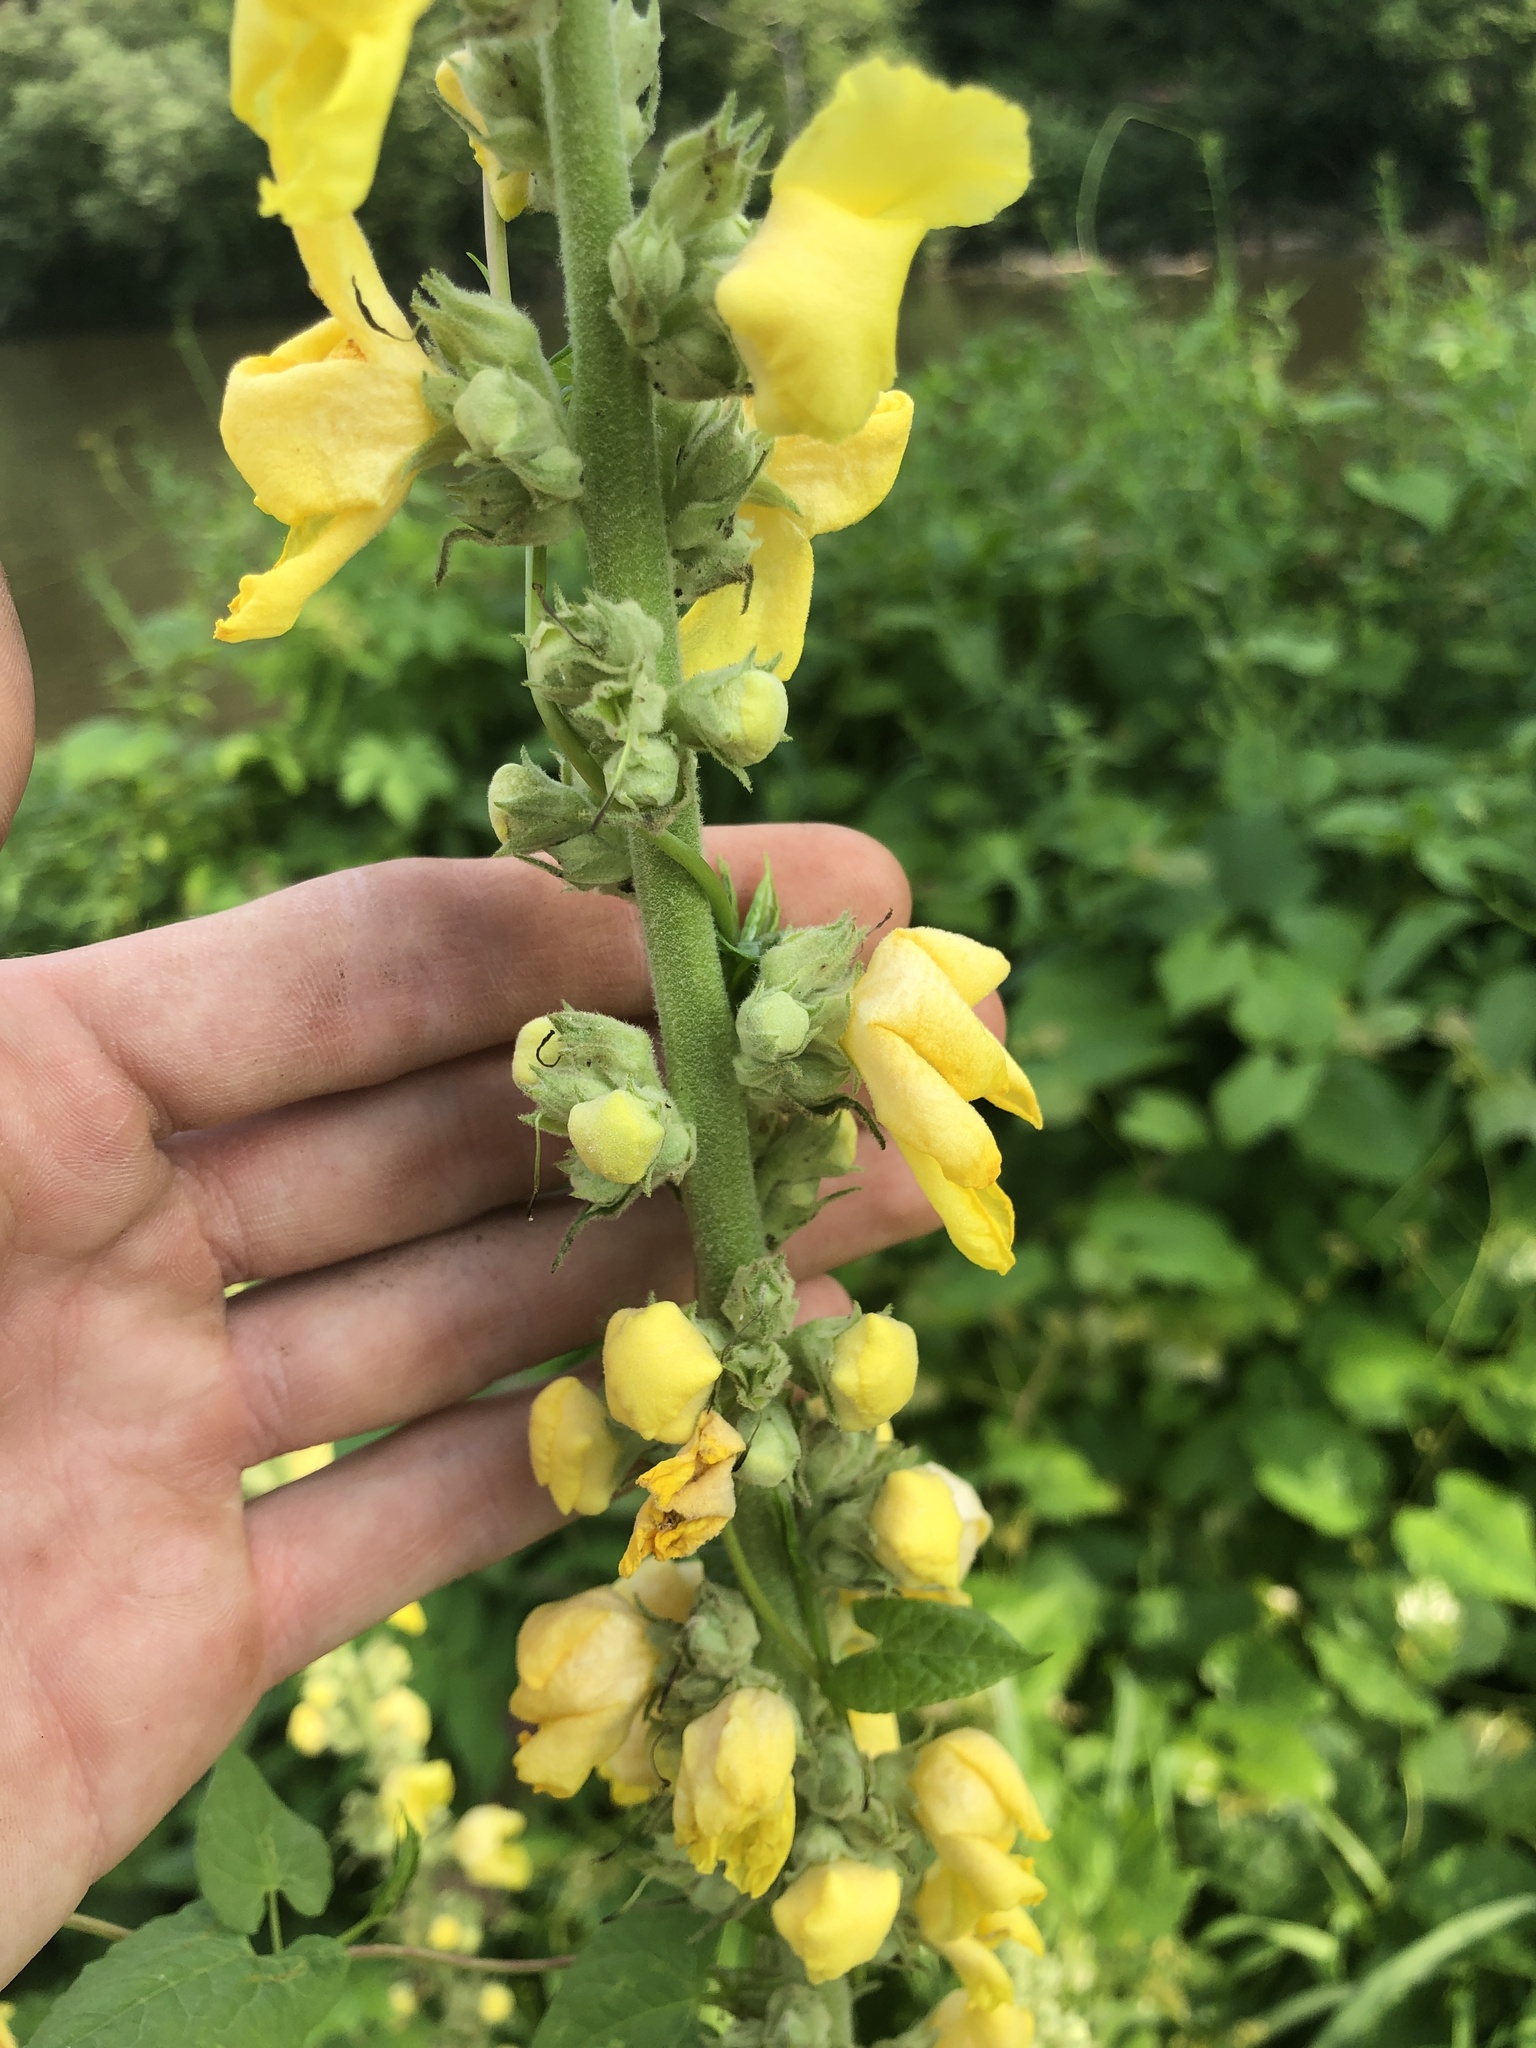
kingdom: Plantae
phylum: Tracheophyta
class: Magnoliopsida
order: Lamiales
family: Scrophulariaceae
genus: Verbascum
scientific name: Verbascum phlomoides
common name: Orange mullein
